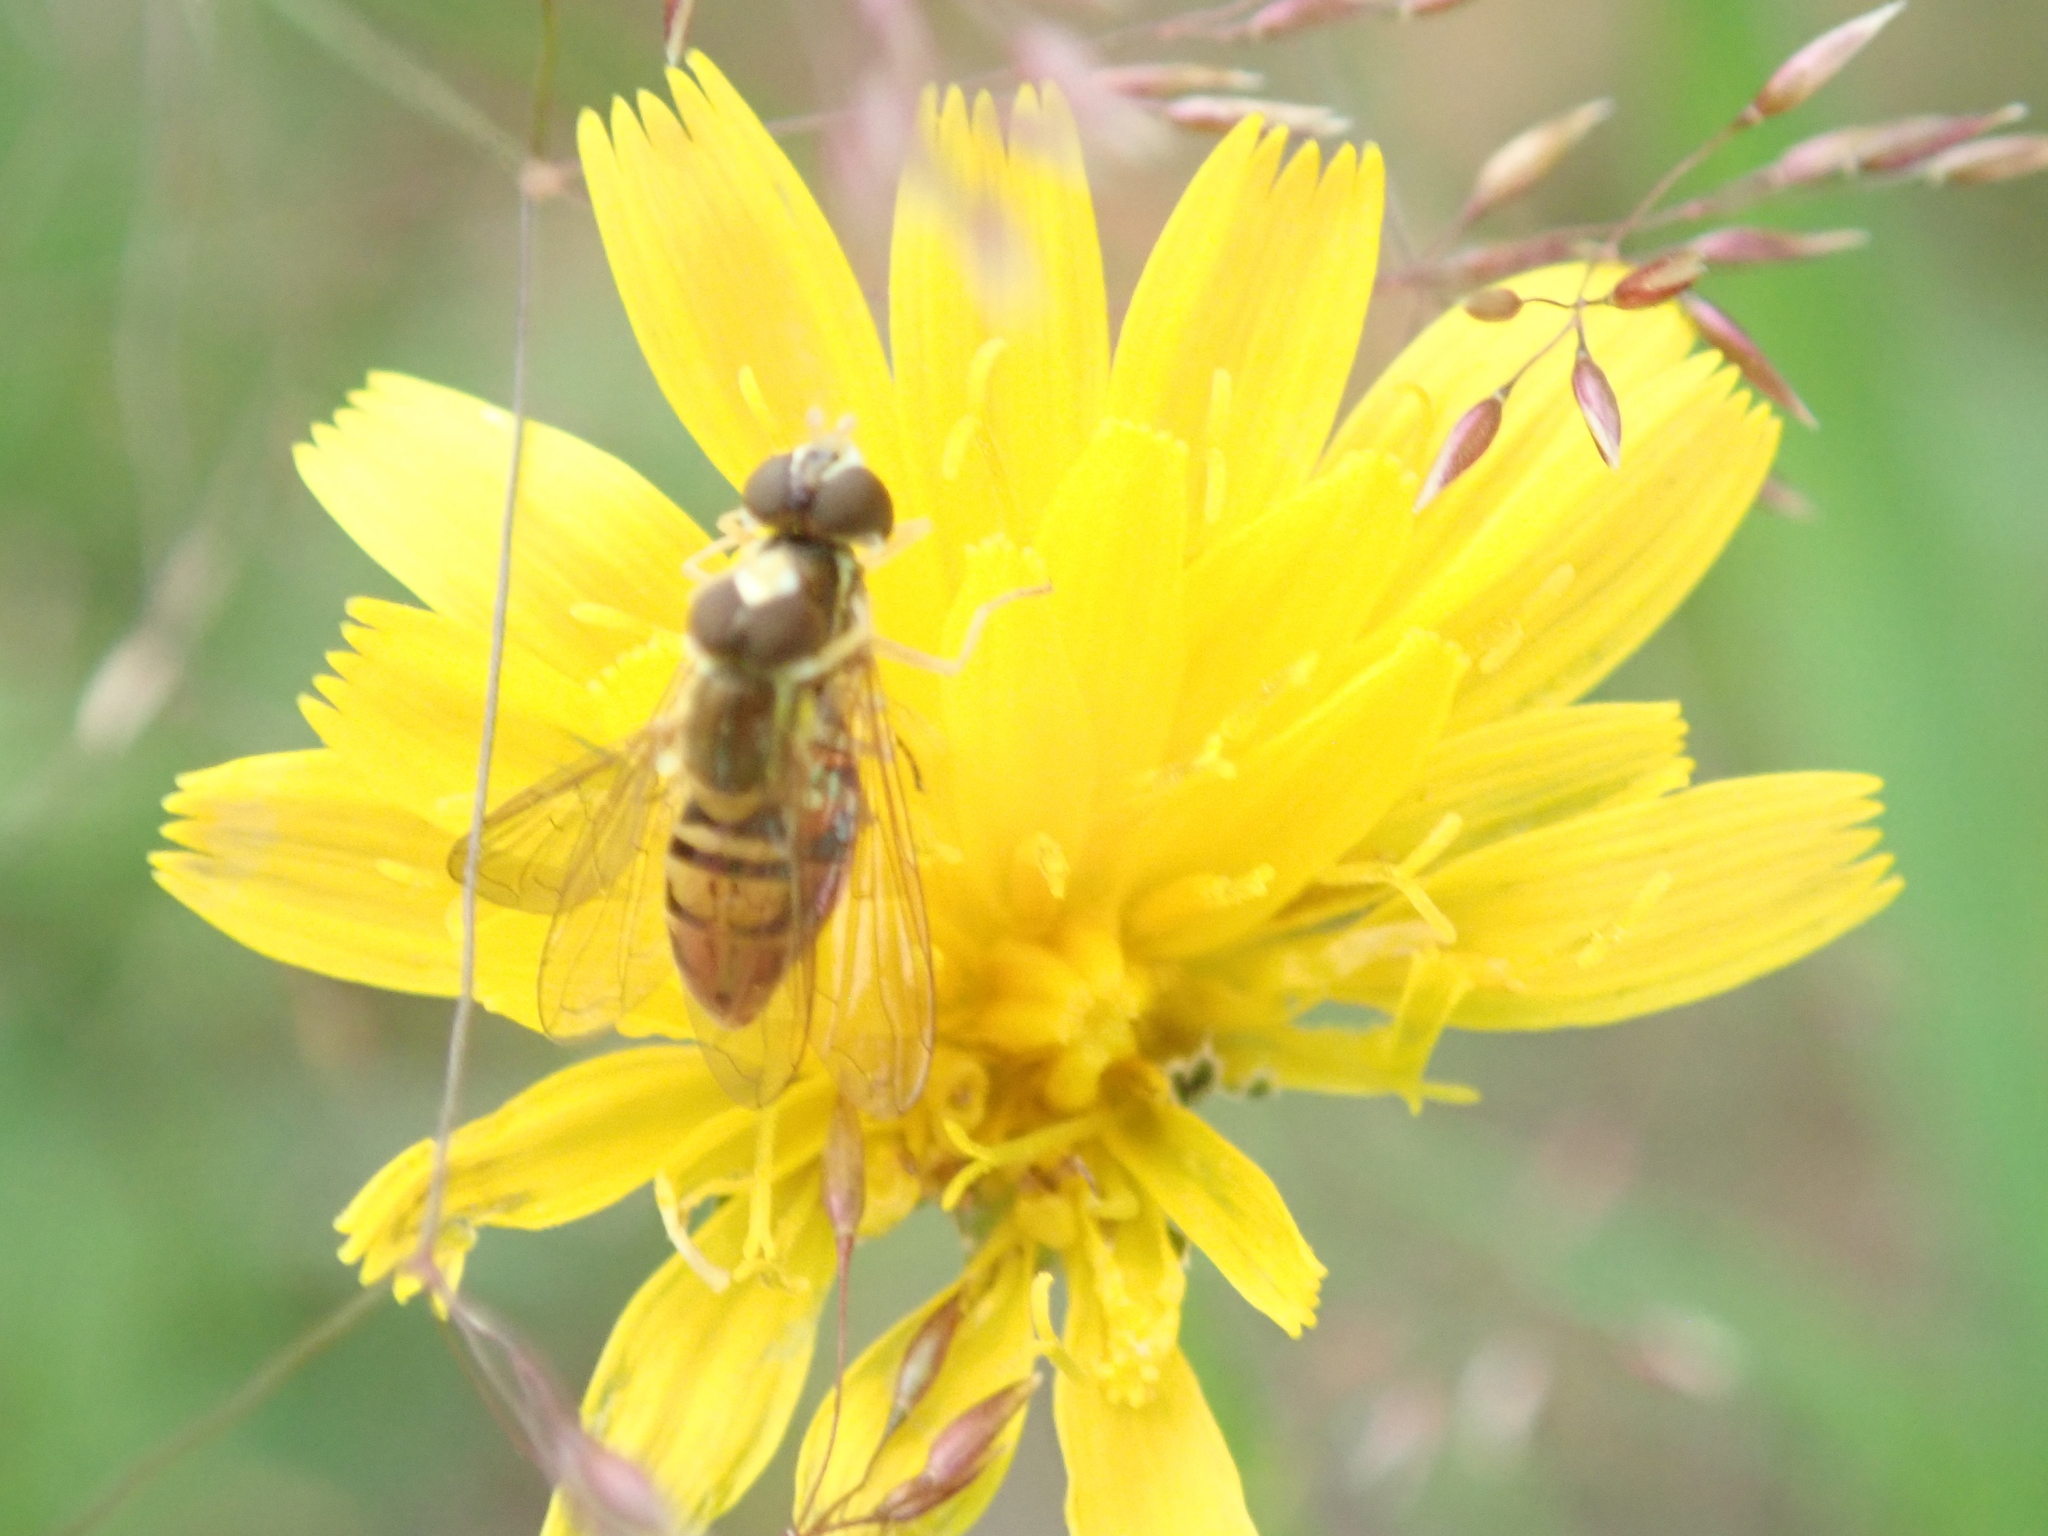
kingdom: Animalia
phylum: Arthropoda
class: Insecta
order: Diptera
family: Syrphidae
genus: Toxomerus
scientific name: Toxomerus marginatus
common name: Syrphid fly
